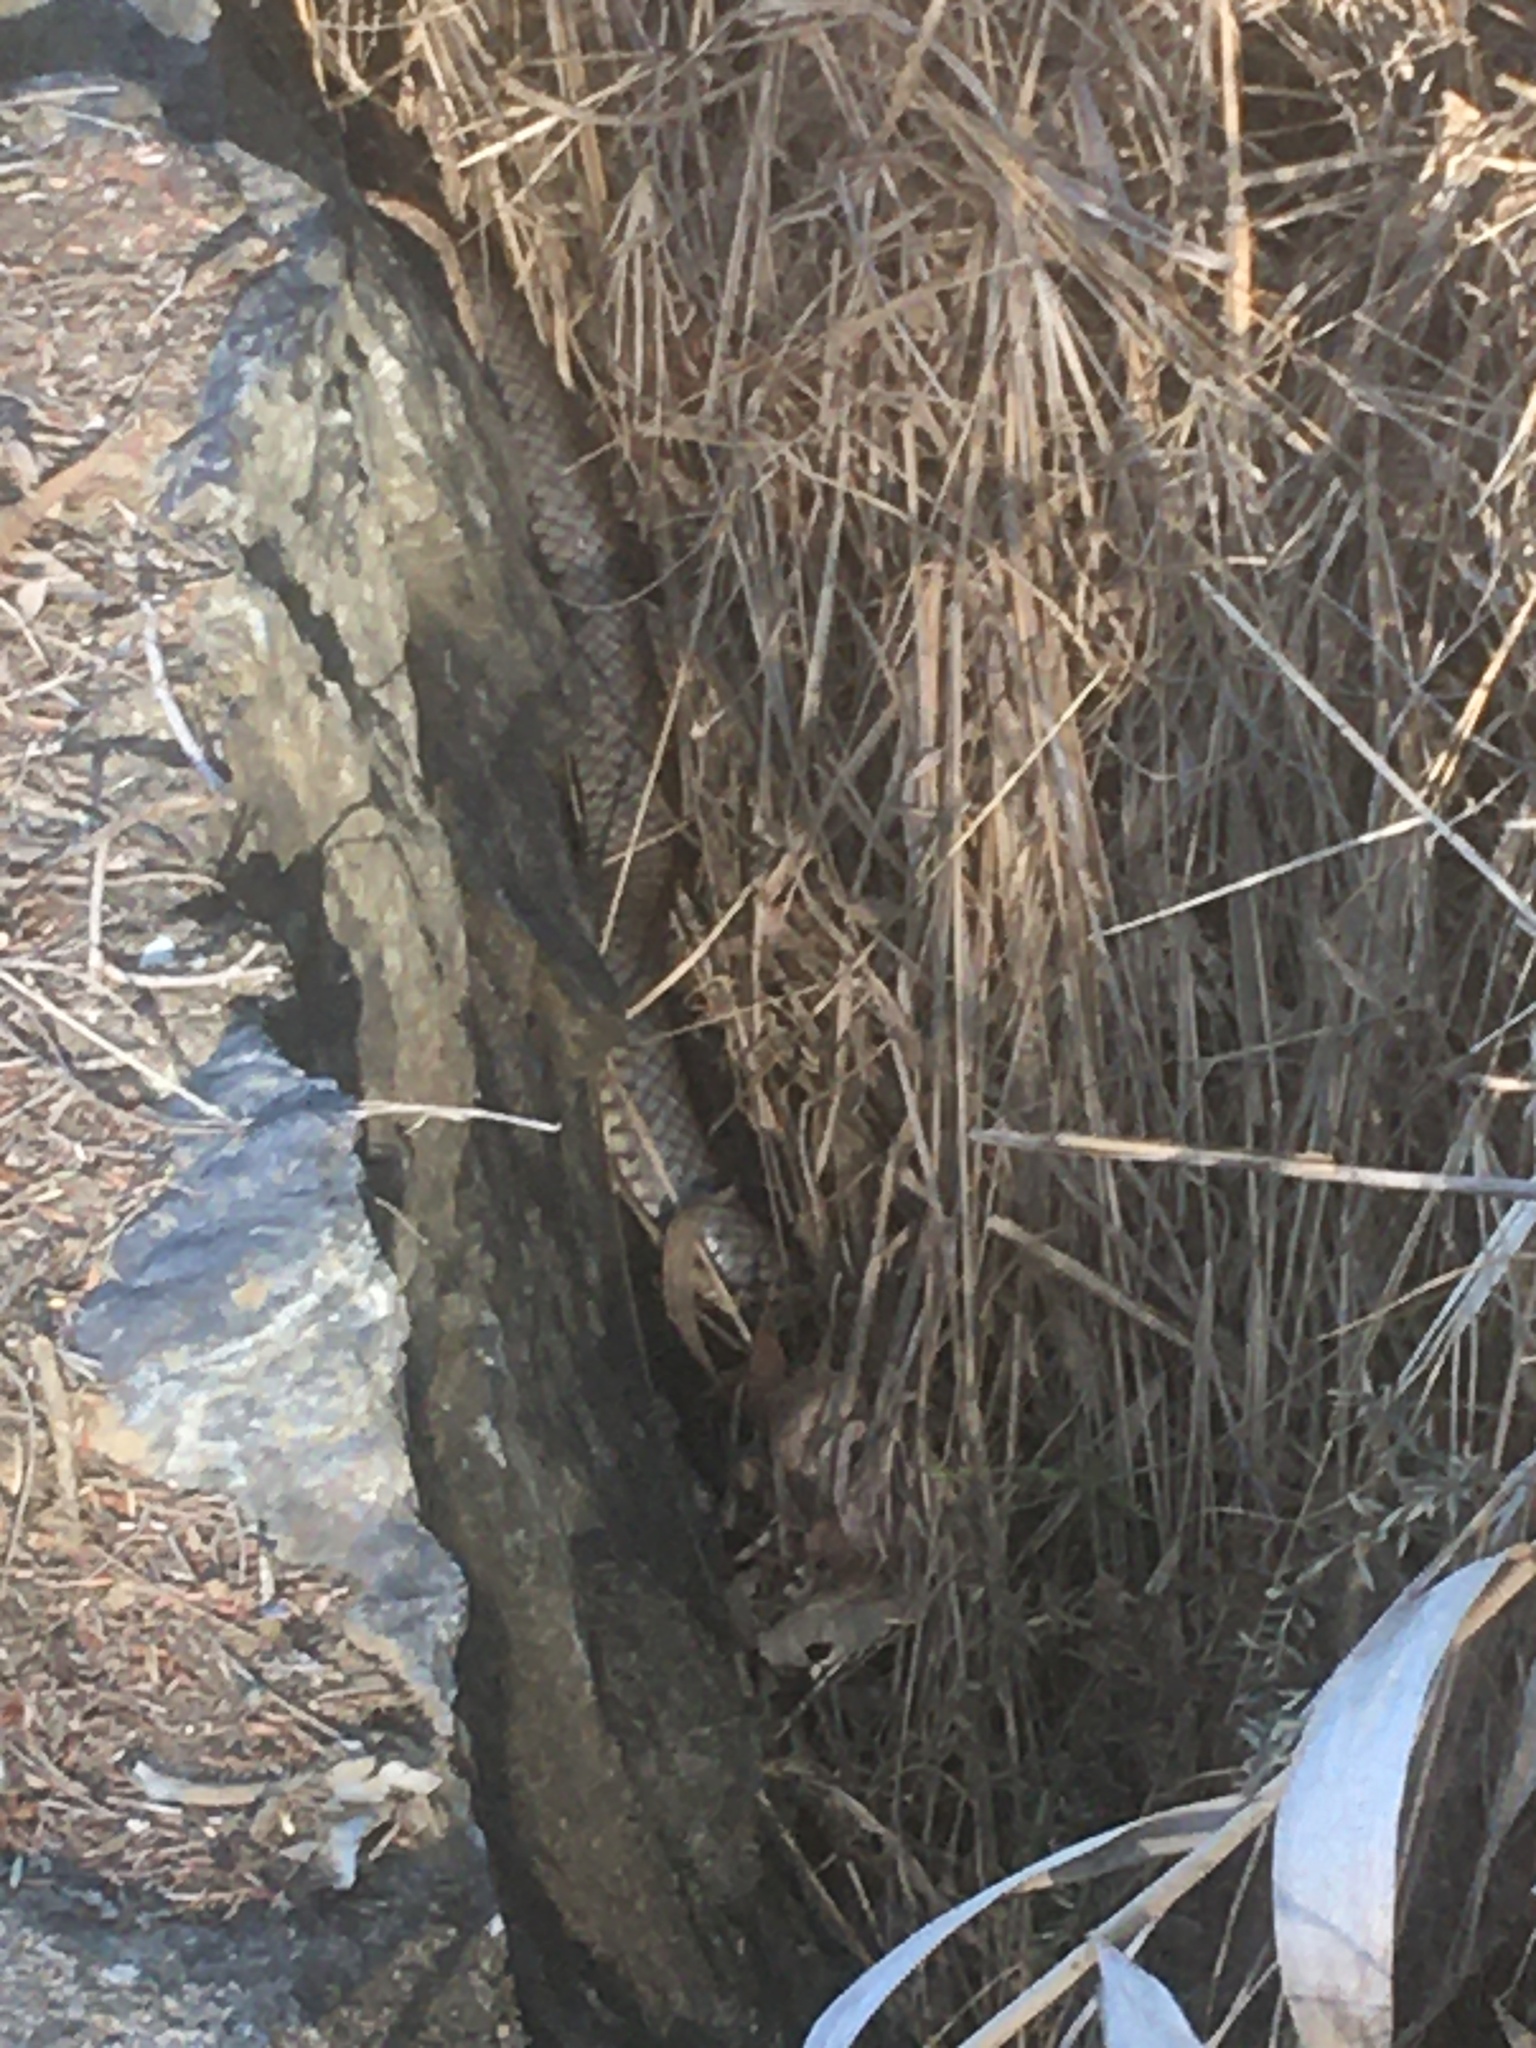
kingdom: Animalia
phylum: Chordata
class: Squamata
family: Elapidae
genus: Pseudonaja
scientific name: Pseudonaja textilis
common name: Eastern brown snake
